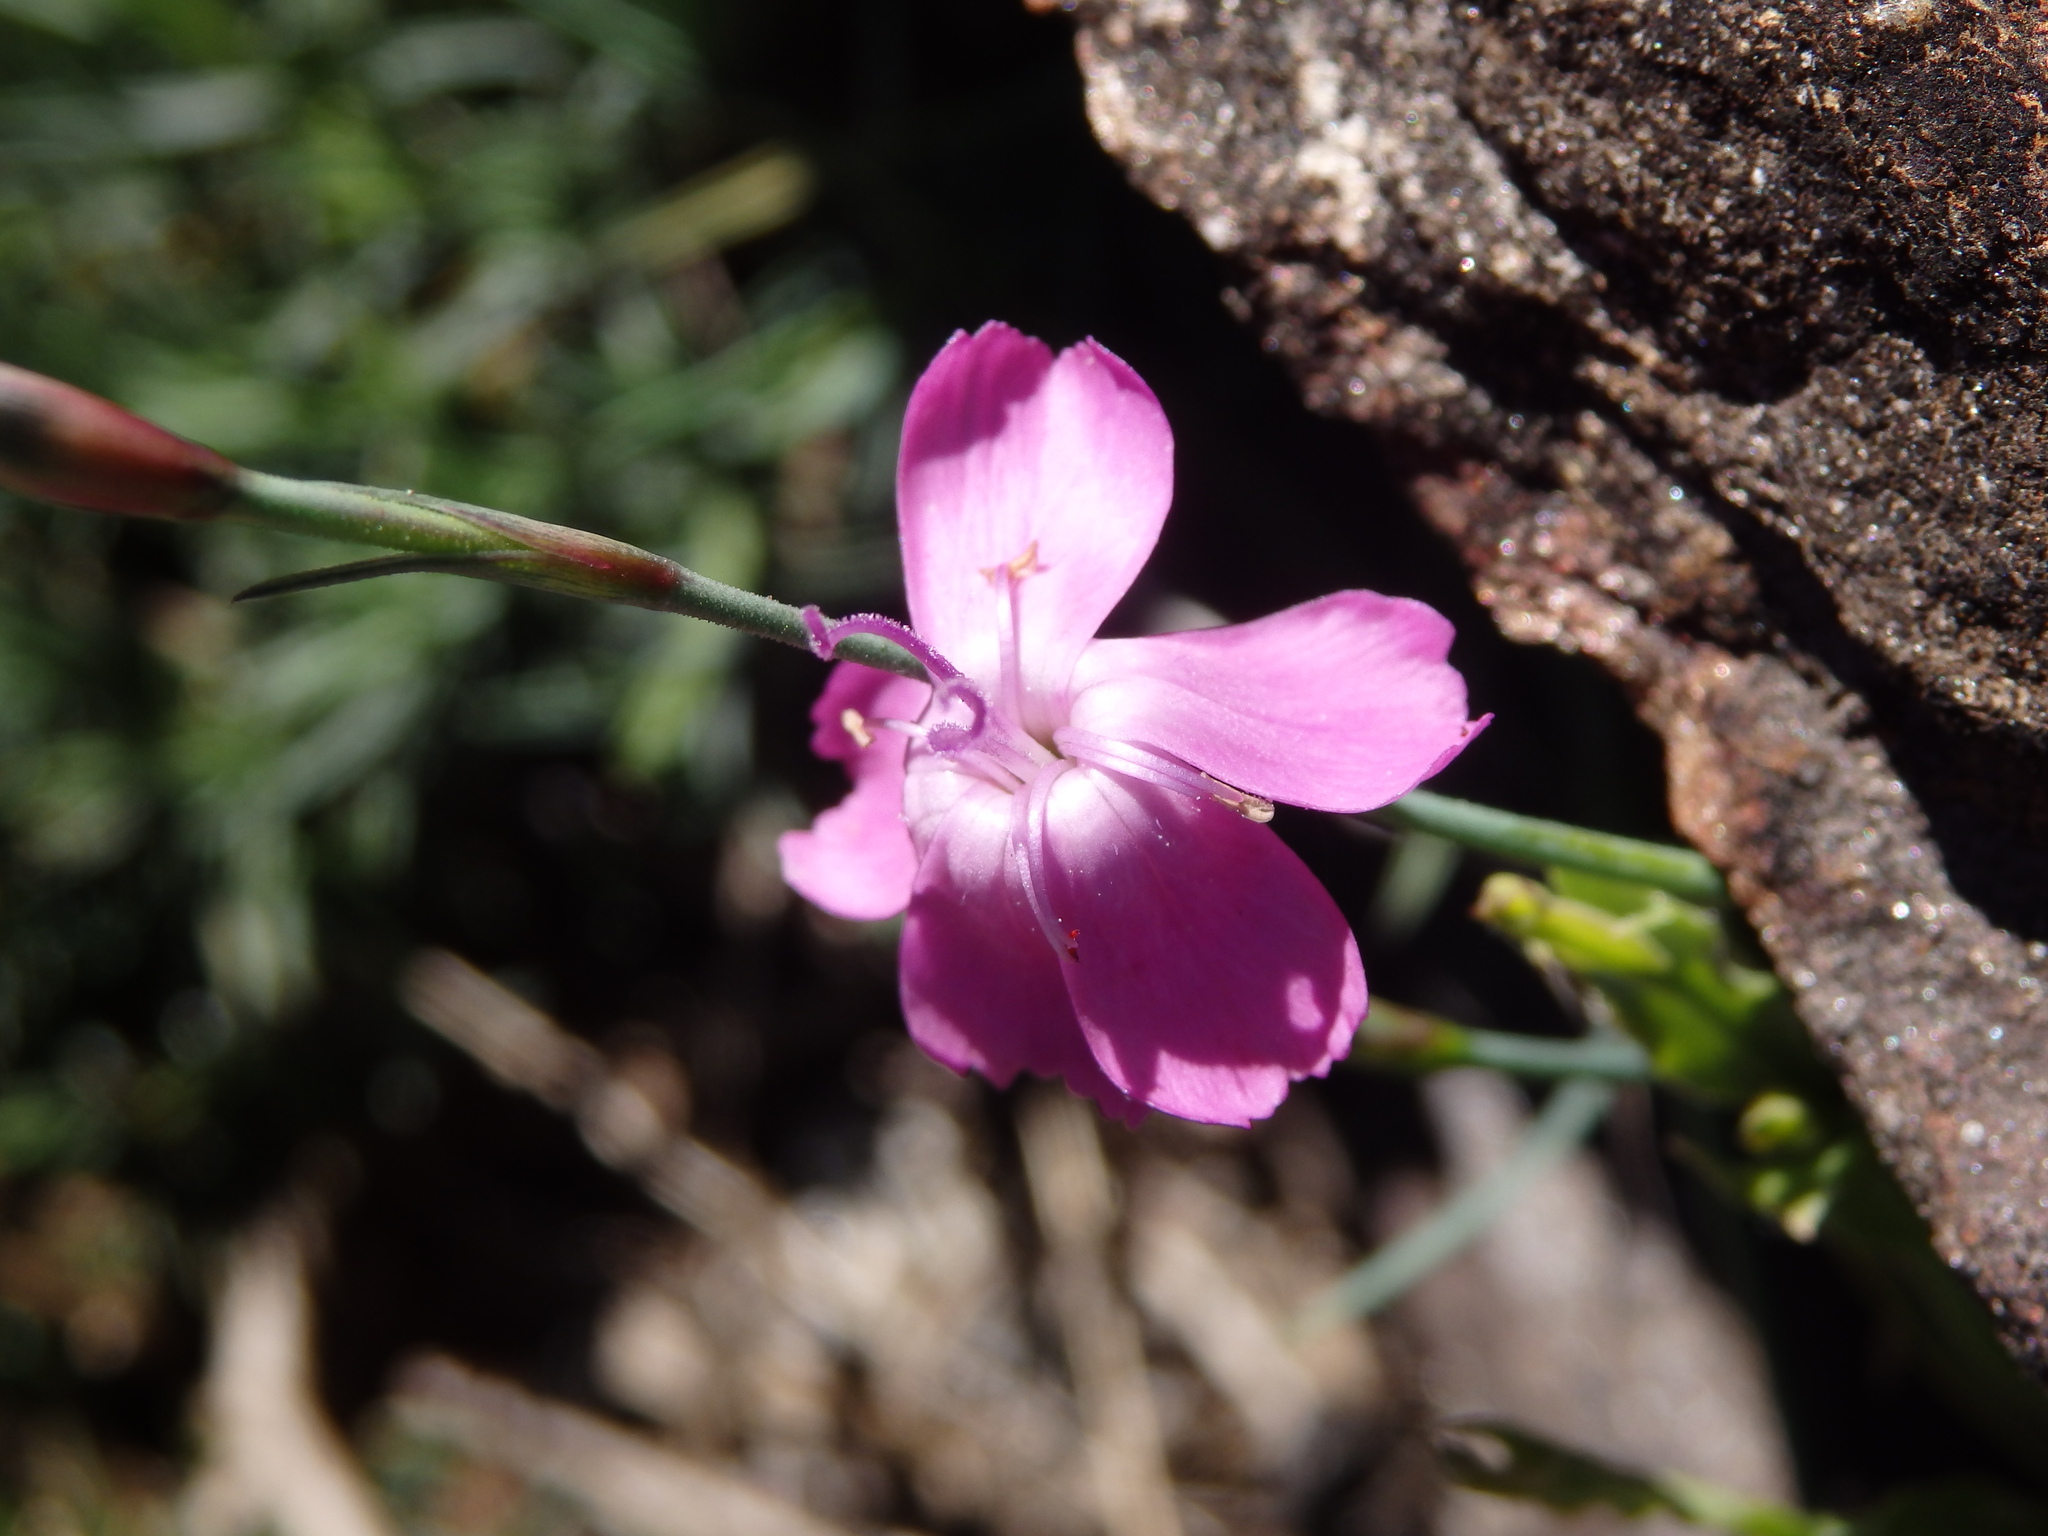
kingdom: Plantae
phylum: Tracheophyta
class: Magnoliopsida
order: Caryophyllales
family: Caryophyllaceae
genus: Dianthus
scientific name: Dianthus lusitanus
